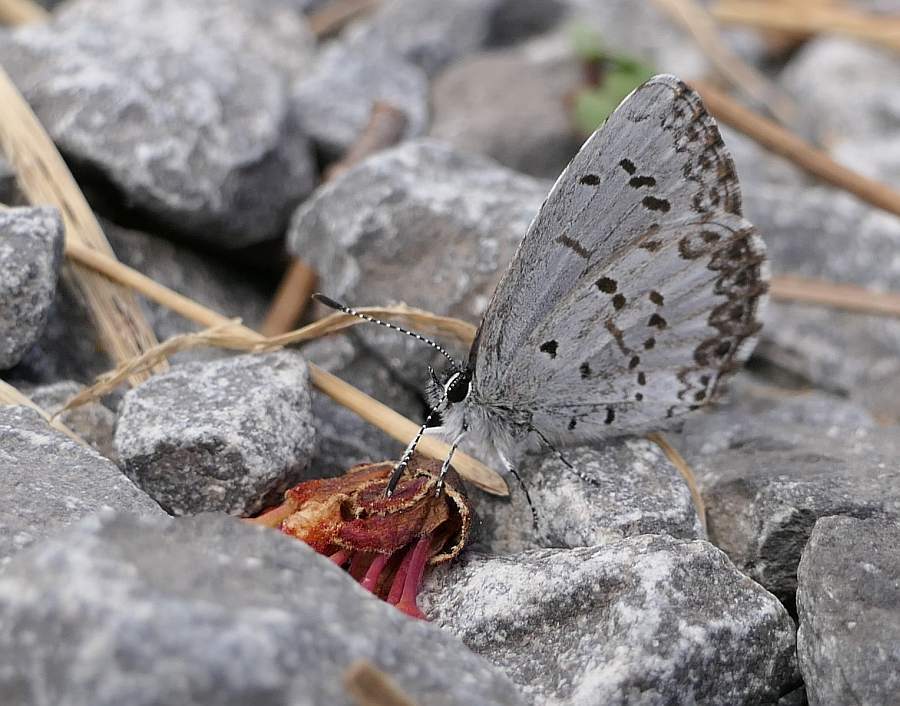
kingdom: Animalia
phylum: Arthropoda
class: Insecta
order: Lepidoptera
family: Lycaenidae
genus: Celastrina
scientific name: Celastrina lucia
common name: Lucia azure
